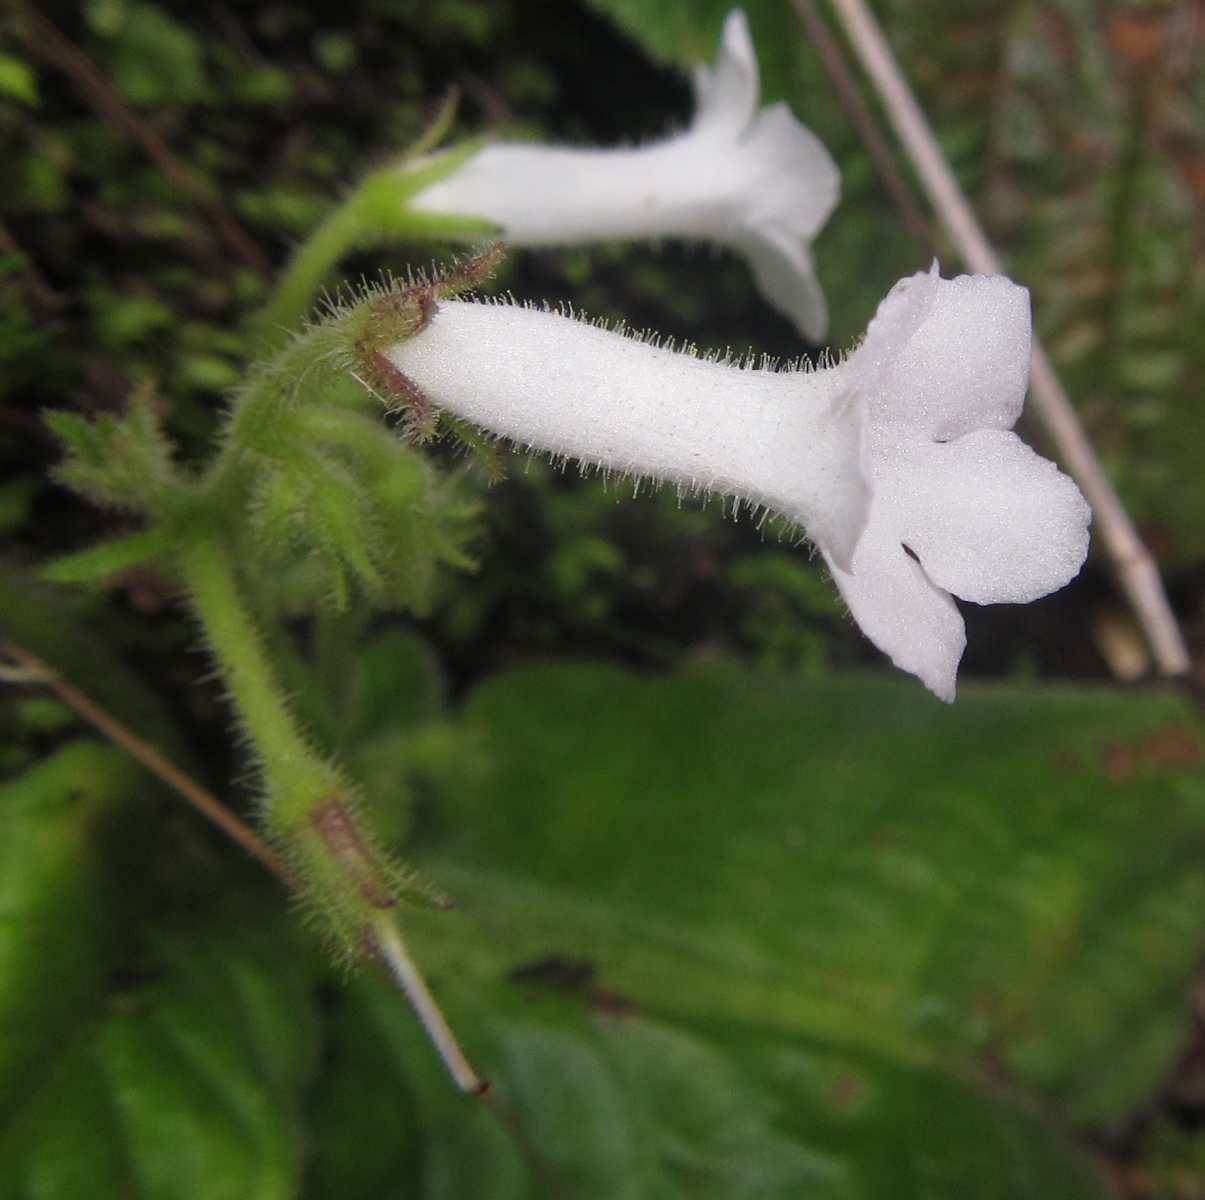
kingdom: Plantae
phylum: Tracheophyta
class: Magnoliopsida
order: Lamiales
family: Gesneriaceae
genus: Streptocarpus
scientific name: Streptocarpus pusillus
